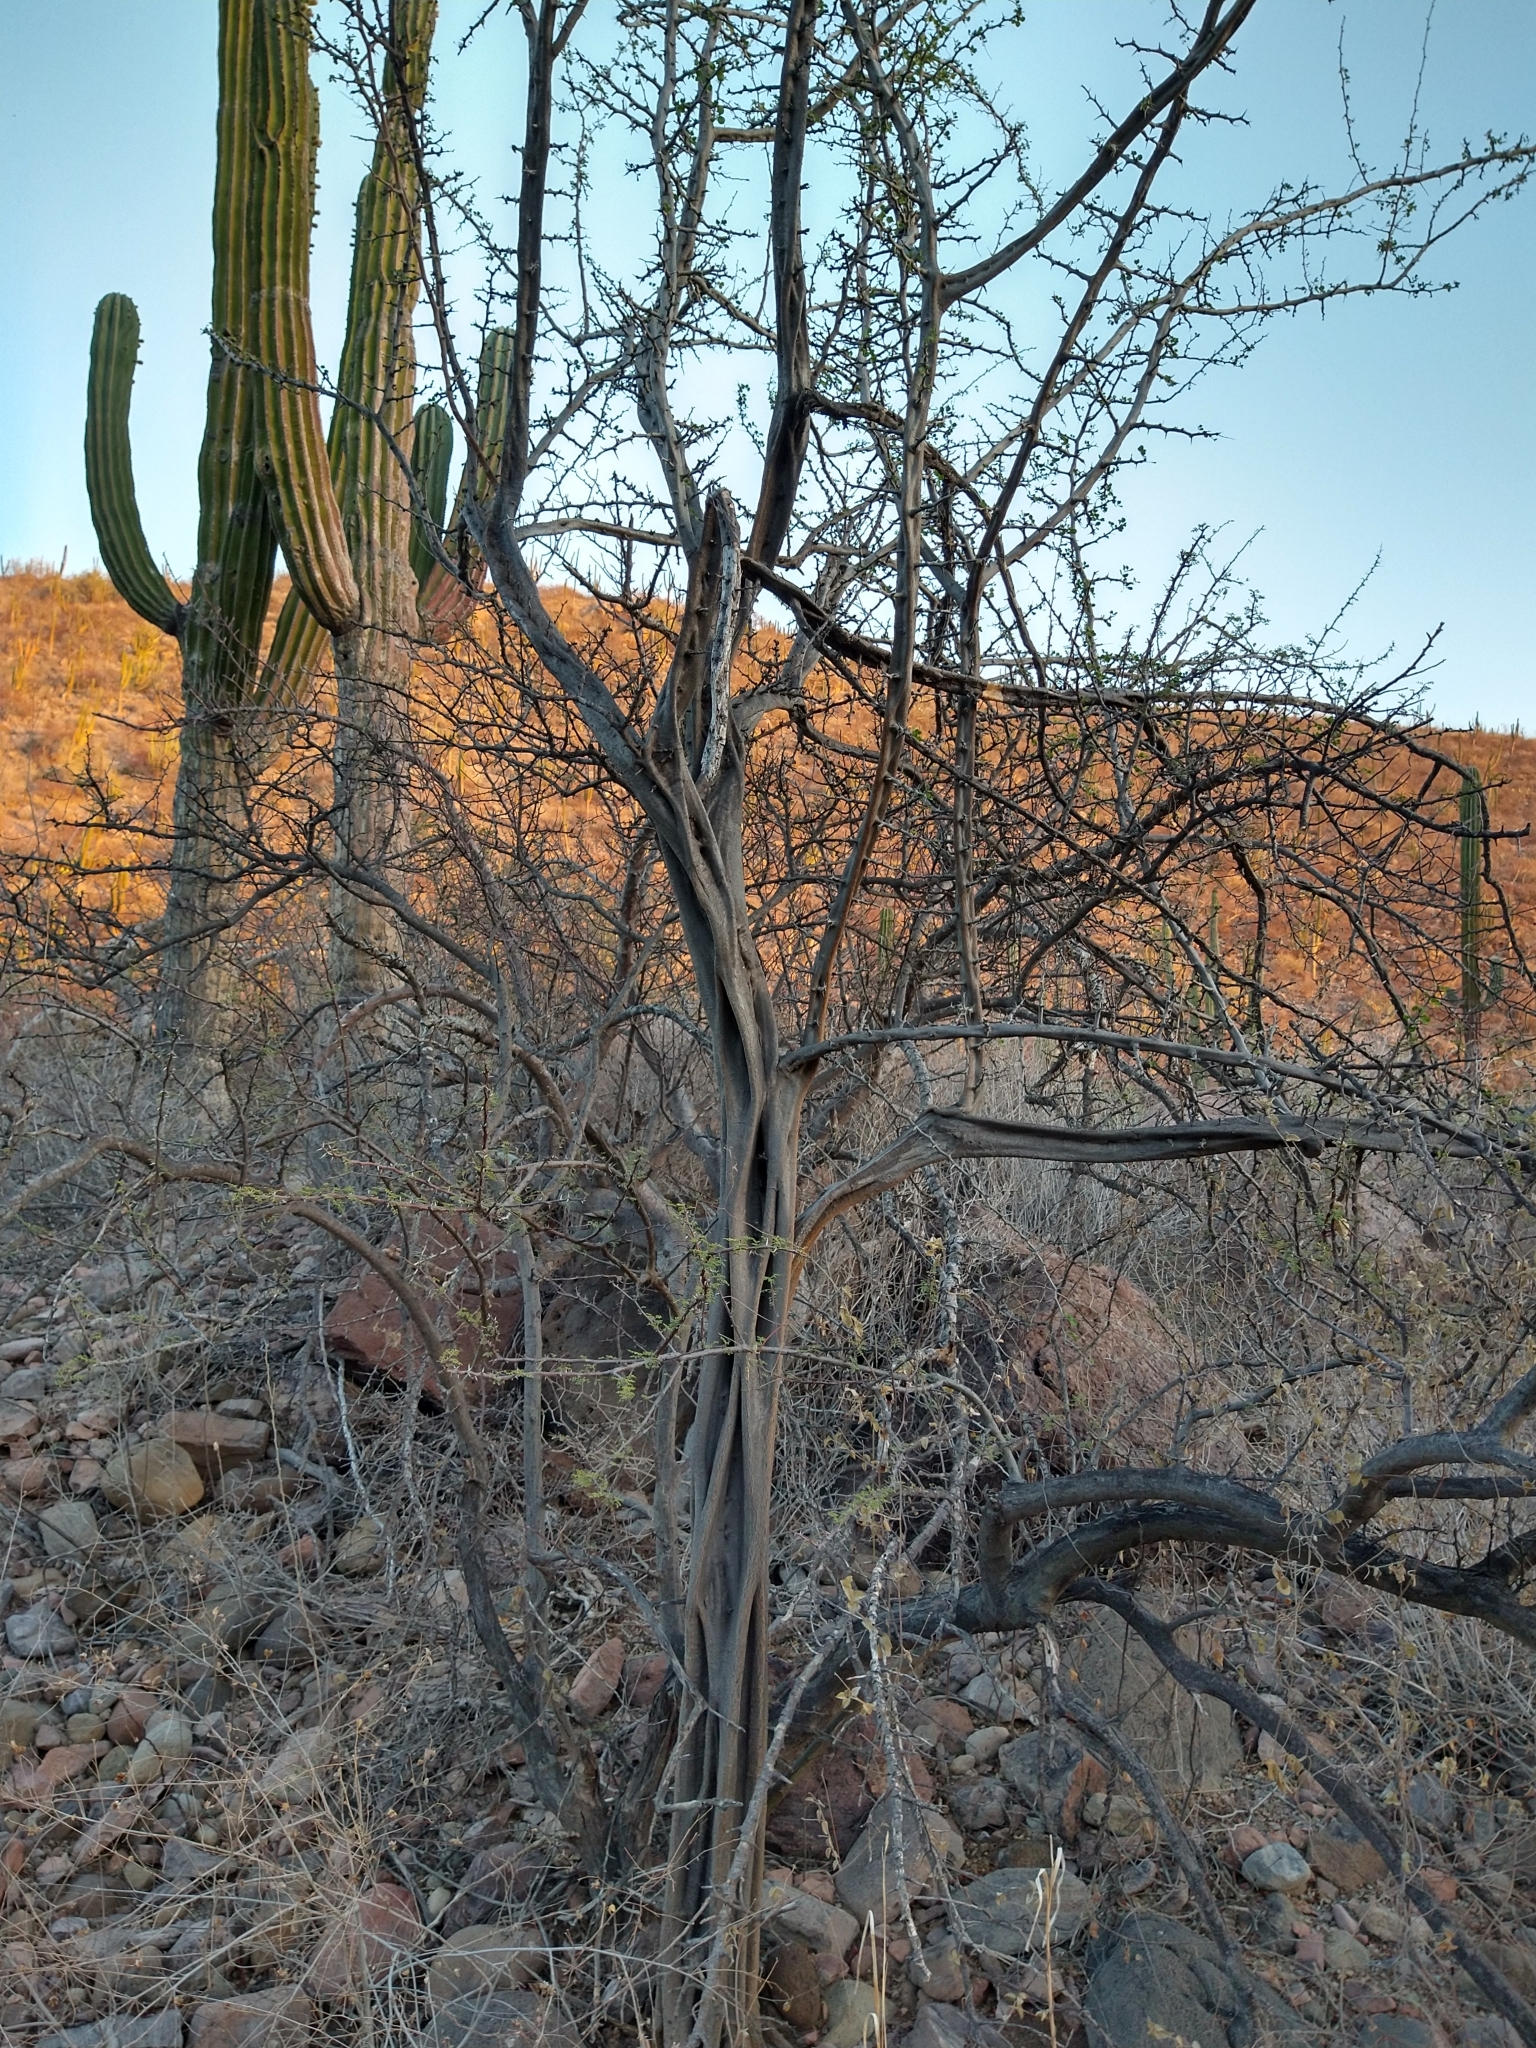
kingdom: Plantae
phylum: Tracheophyta
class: Magnoliopsida
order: Fabales
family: Fabaceae
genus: Haematoxylum
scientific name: Haematoxylum brasiletto
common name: Peachwood
